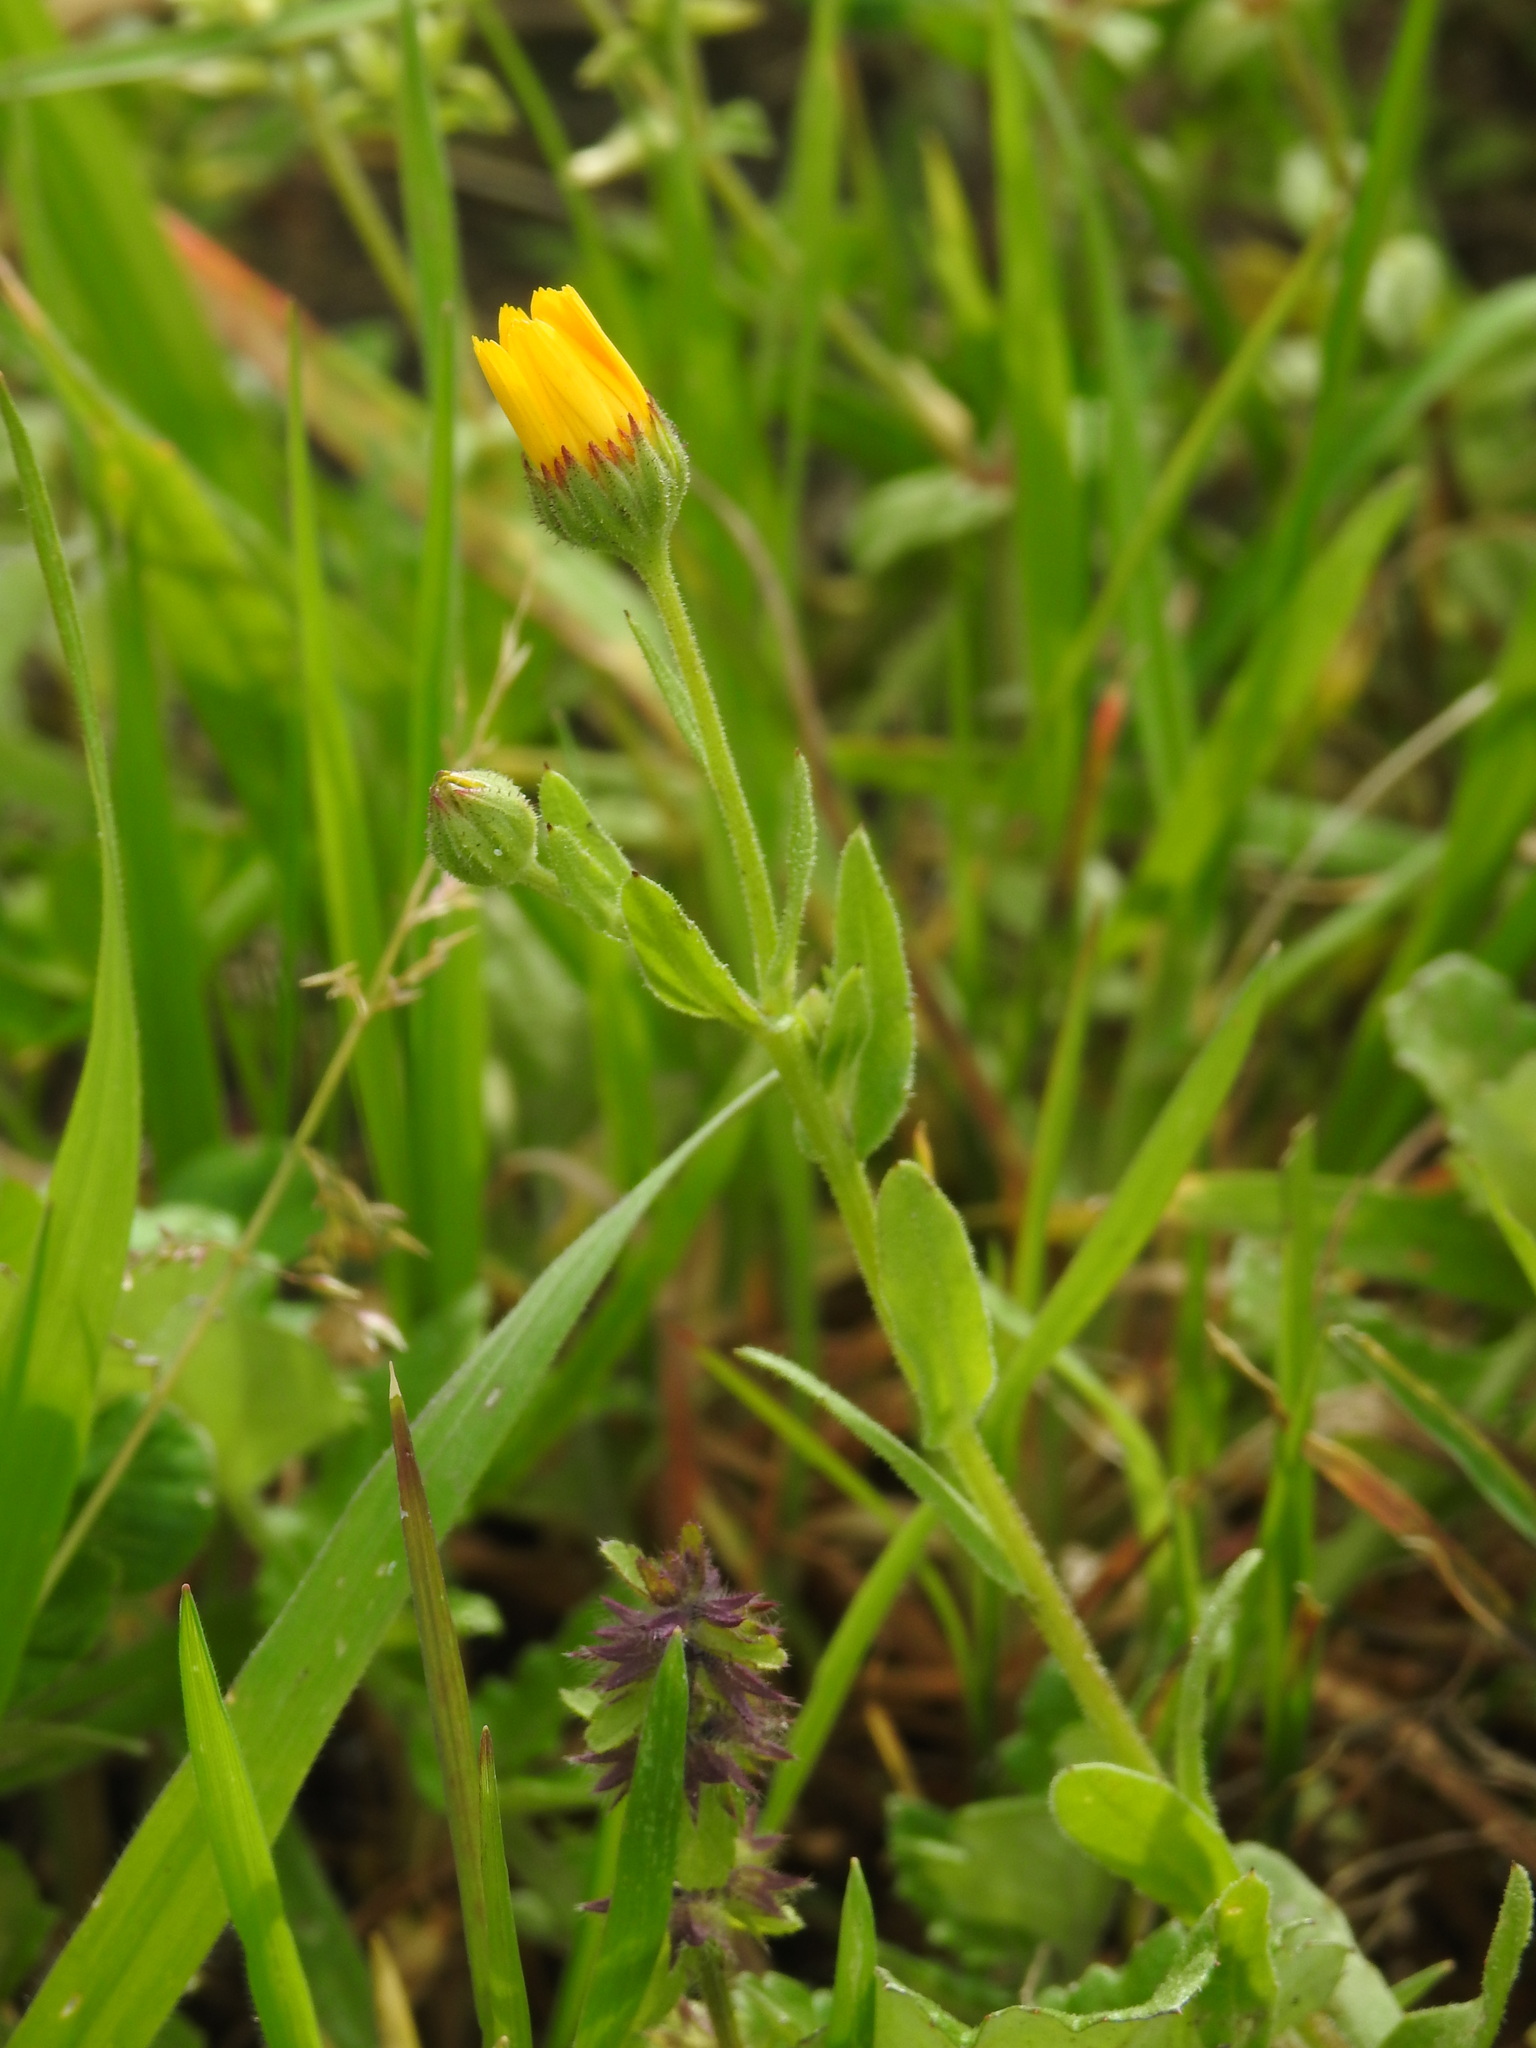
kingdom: Plantae
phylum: Tracheophyta
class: Magnoliopsida
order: Asterales
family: Asteraceae
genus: Calendula
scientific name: Calendula arvensis
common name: Field marigold
